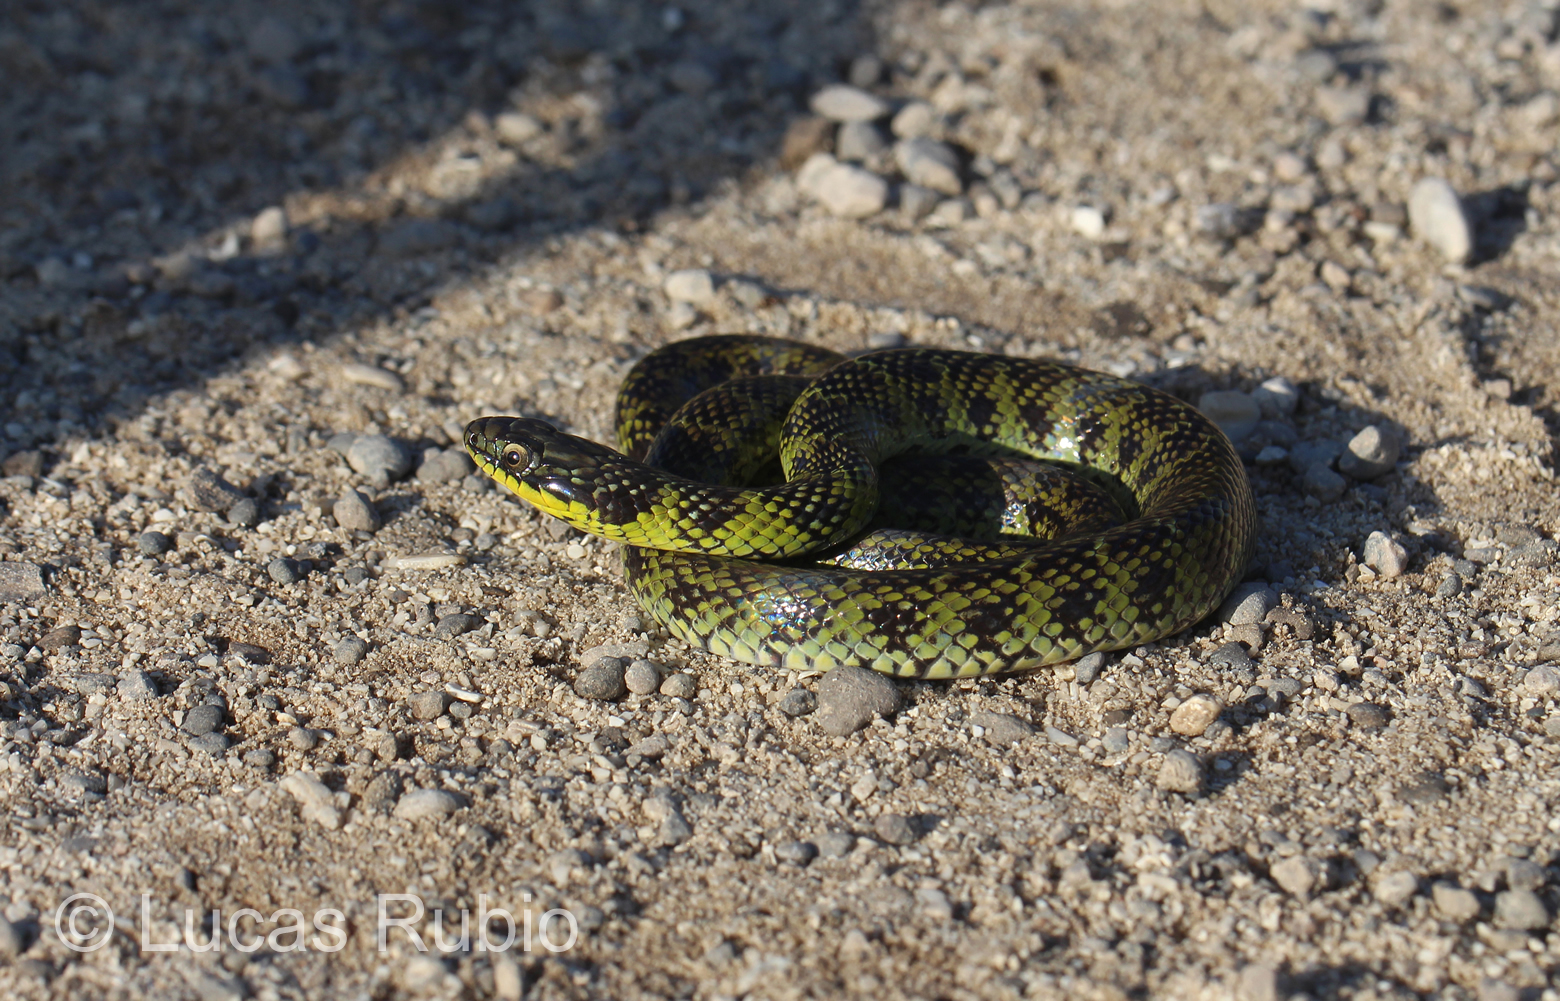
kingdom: Animalia
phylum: Chordata
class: Squamata
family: Colubridae
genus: Erythrolamprus
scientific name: Erythrolamprus poecilogyrus
